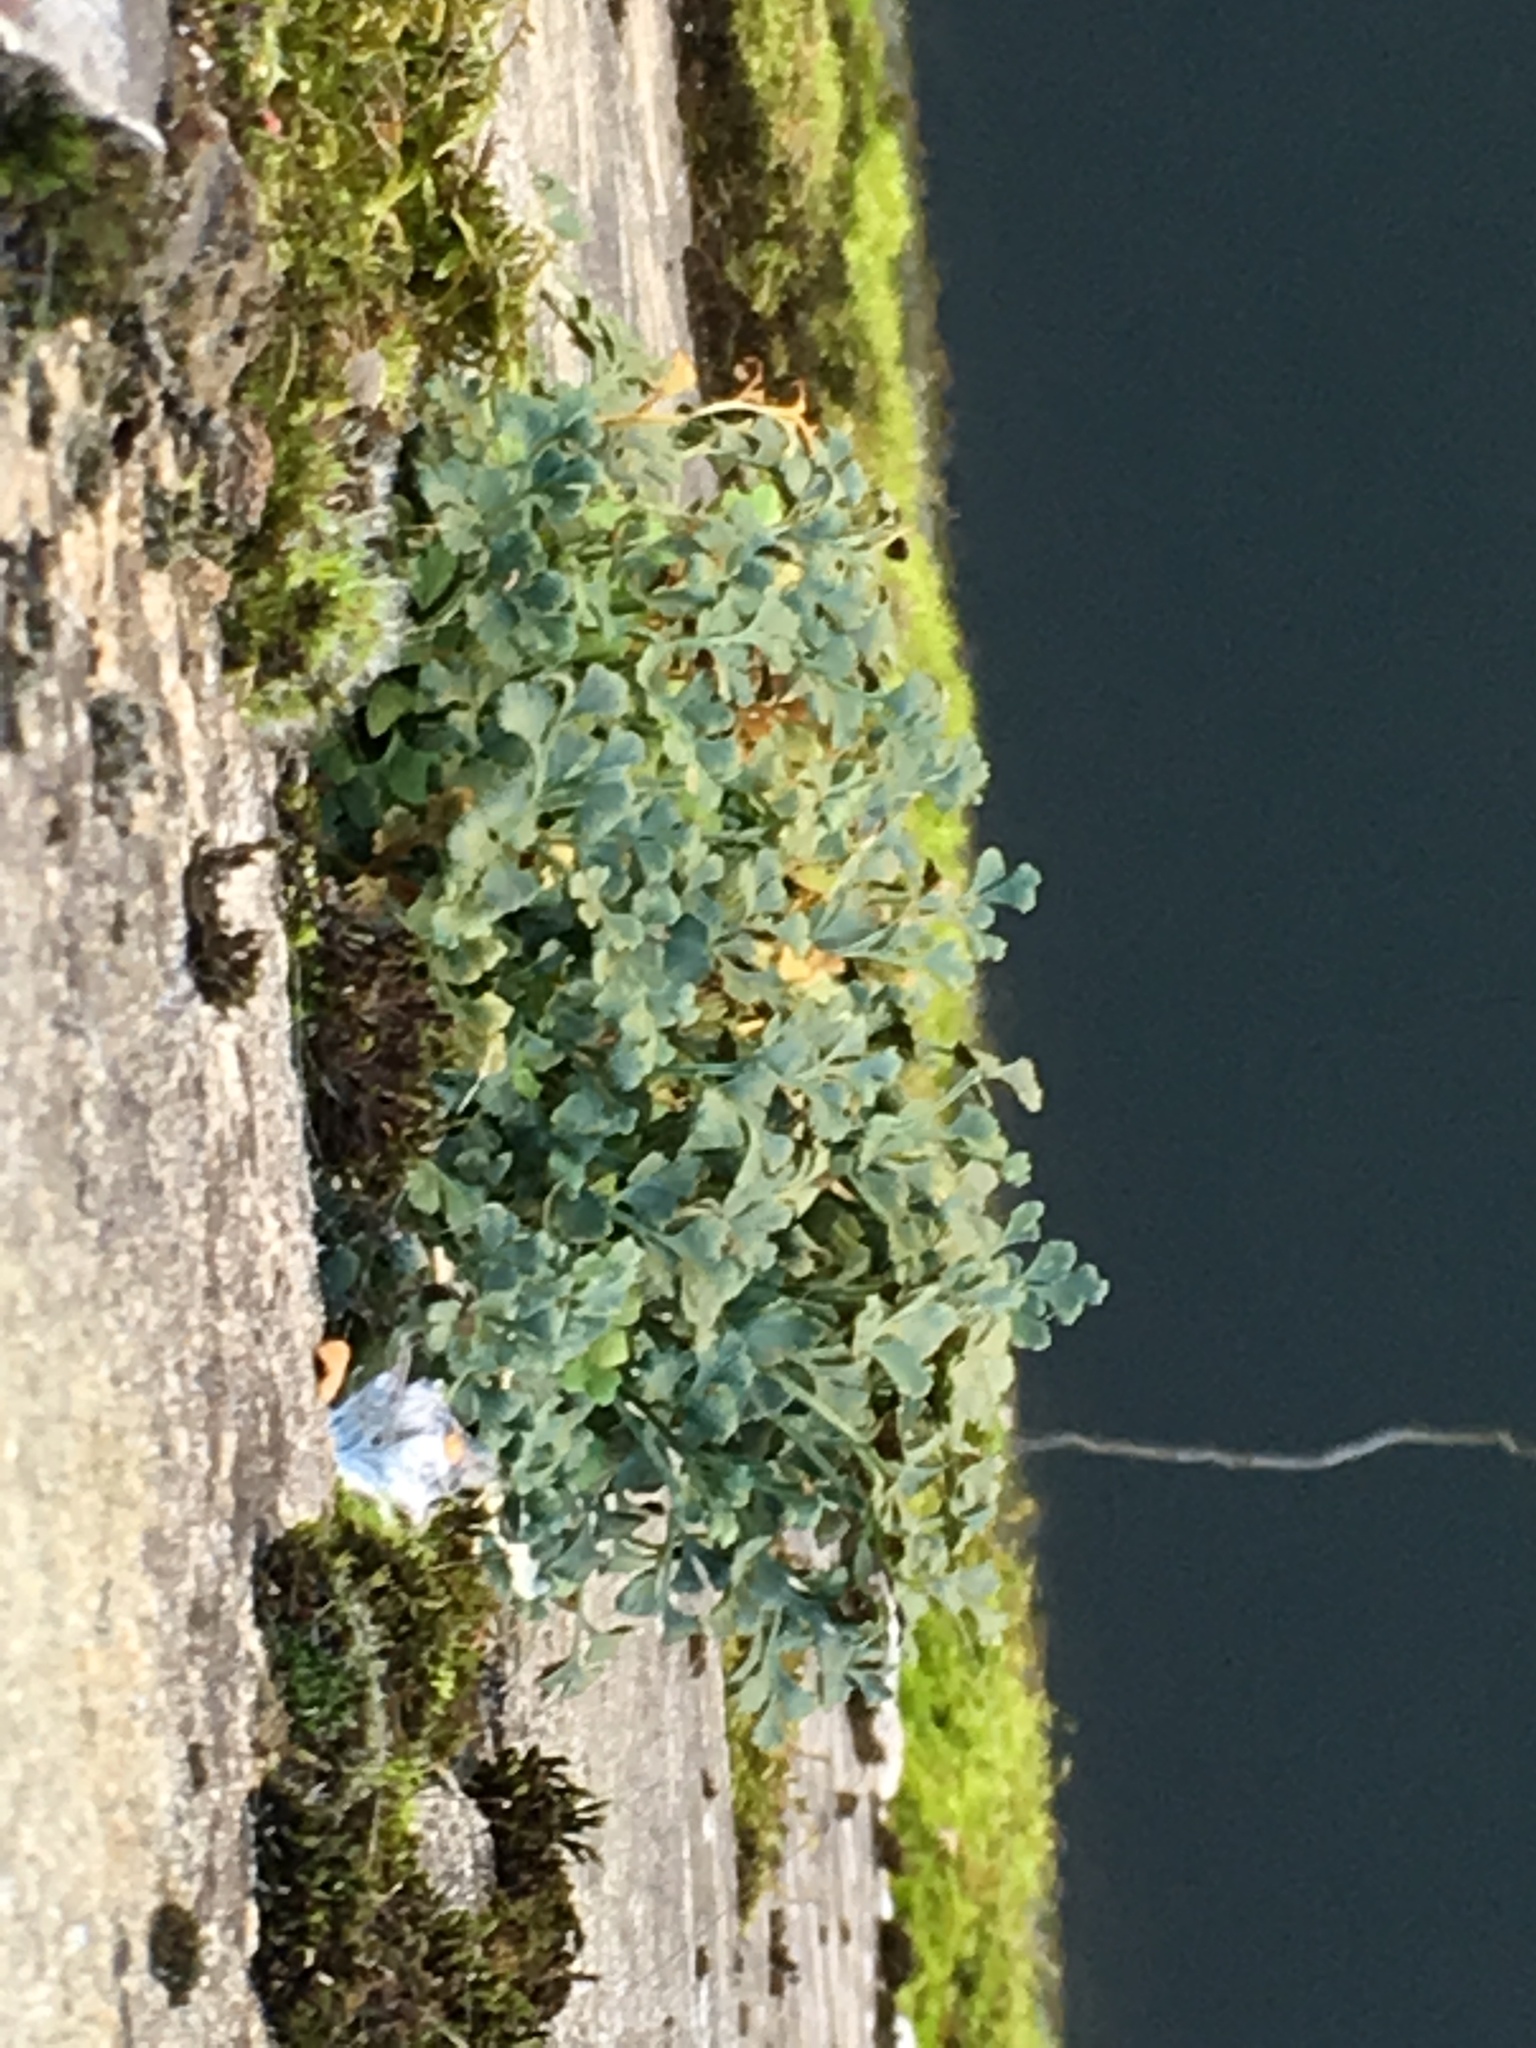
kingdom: Plantae
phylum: Tracheophyta
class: Polypodiopsida
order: Polypodiales
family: Aspleniaceae
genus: Asplenium
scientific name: Asplenium ruta-muraria
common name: Wall-rue
